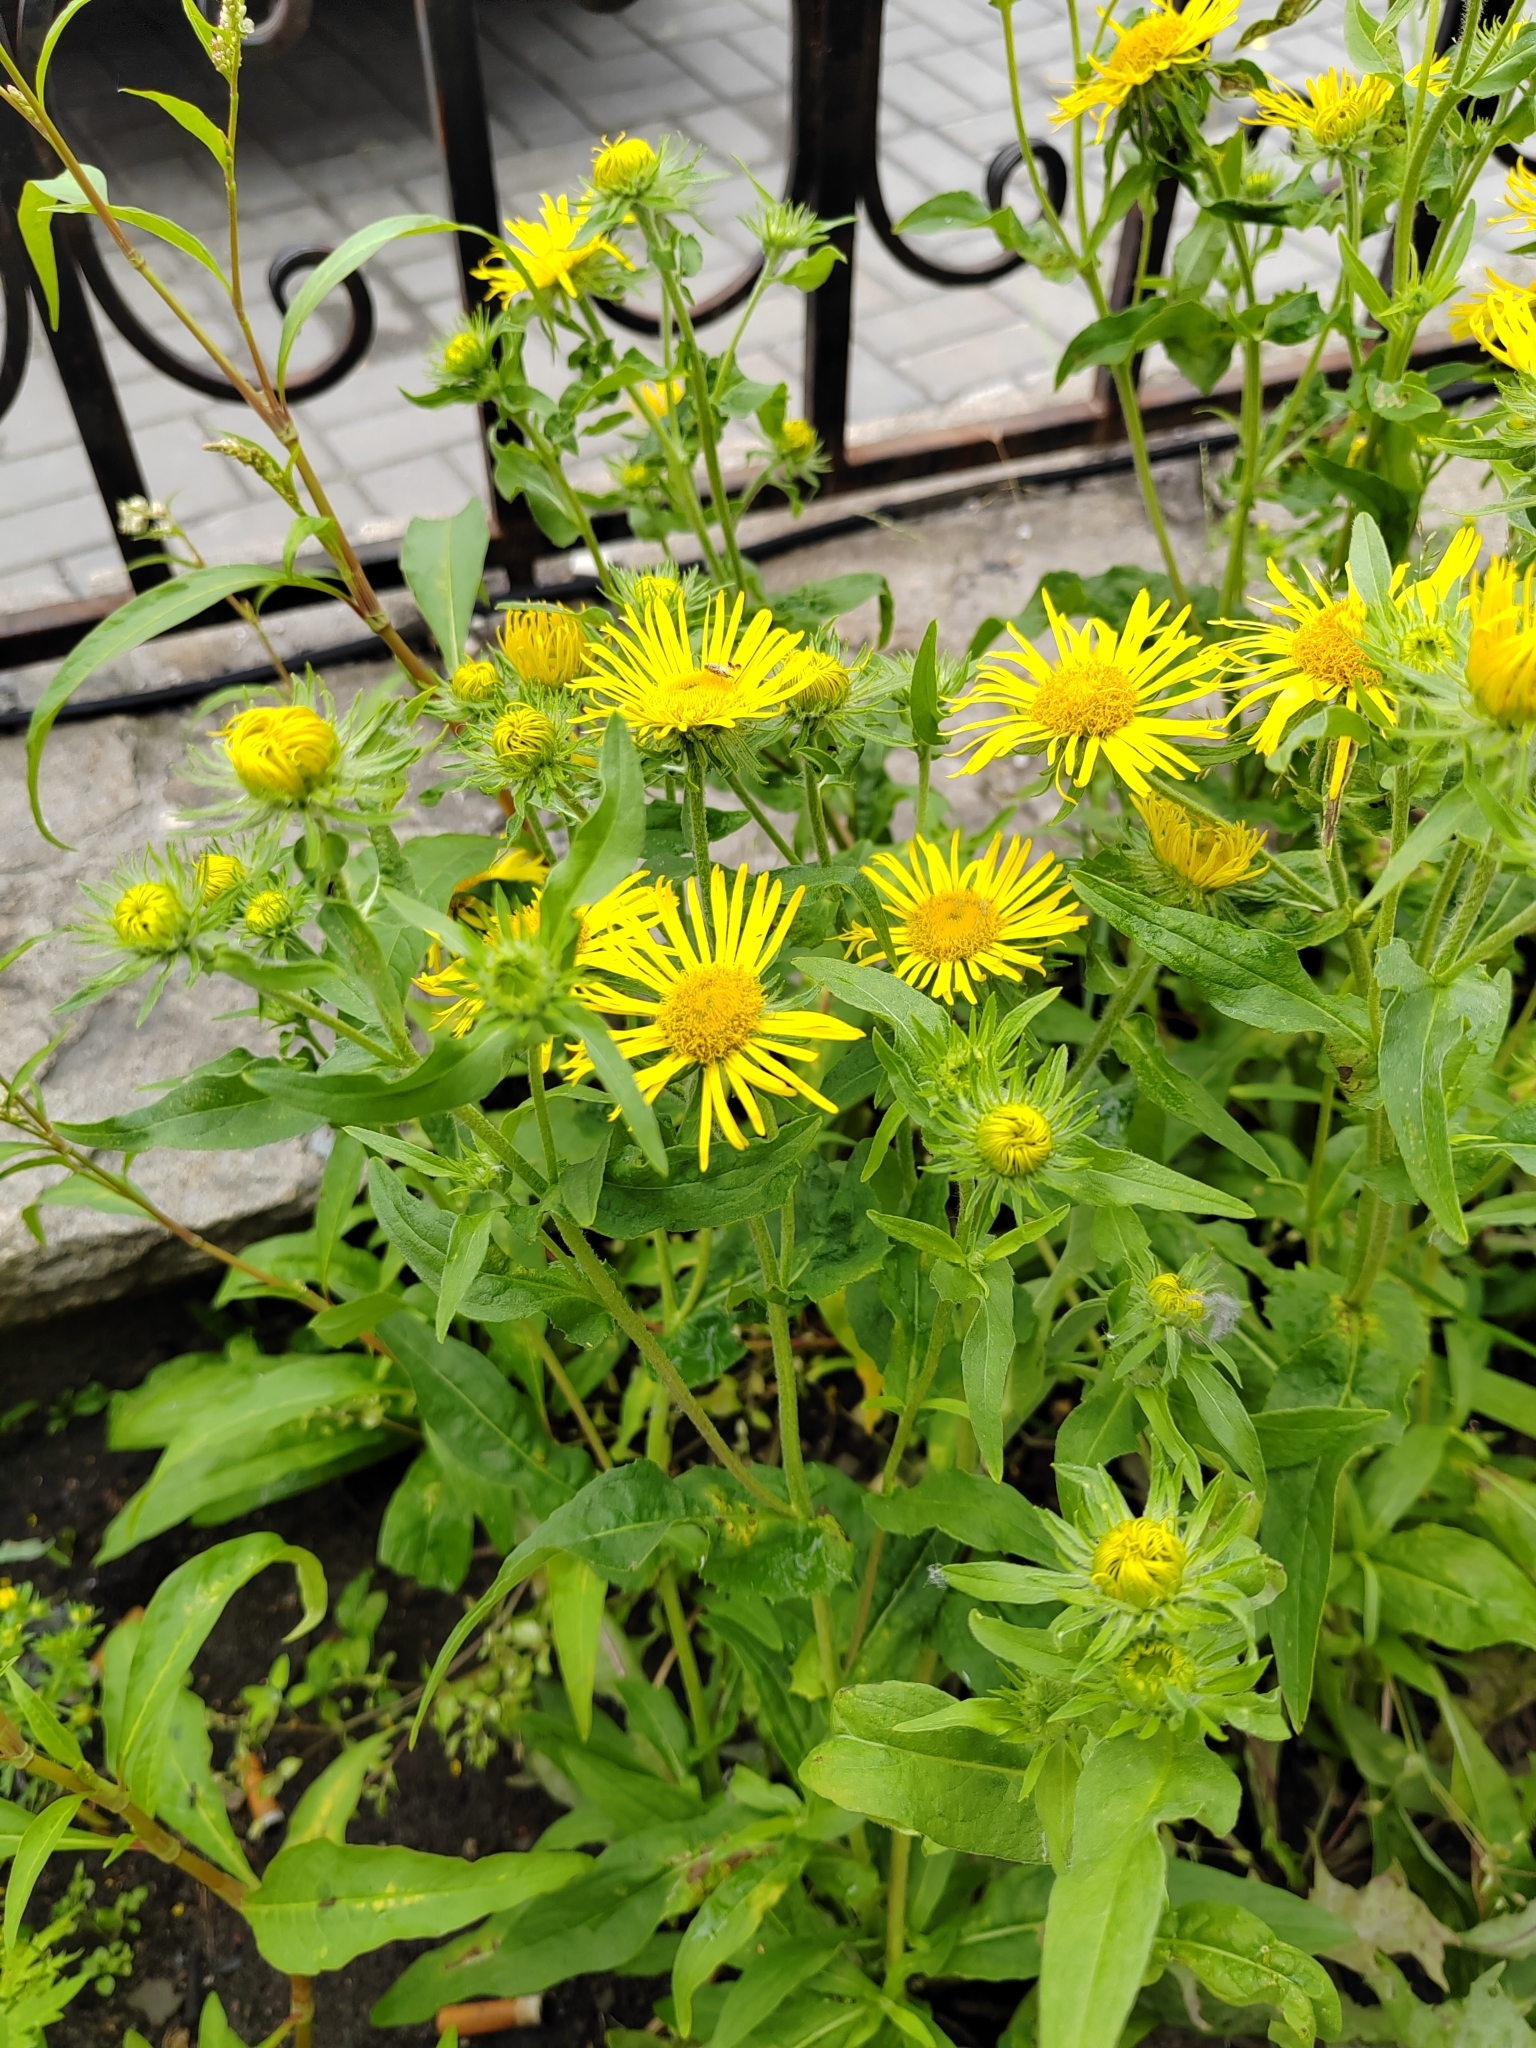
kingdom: Plantae
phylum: Tracheophyta
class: Magnoliopsida
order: Asterales
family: Asteraceae
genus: Pentanema
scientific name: Pentanema britannicum
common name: British elecampane
